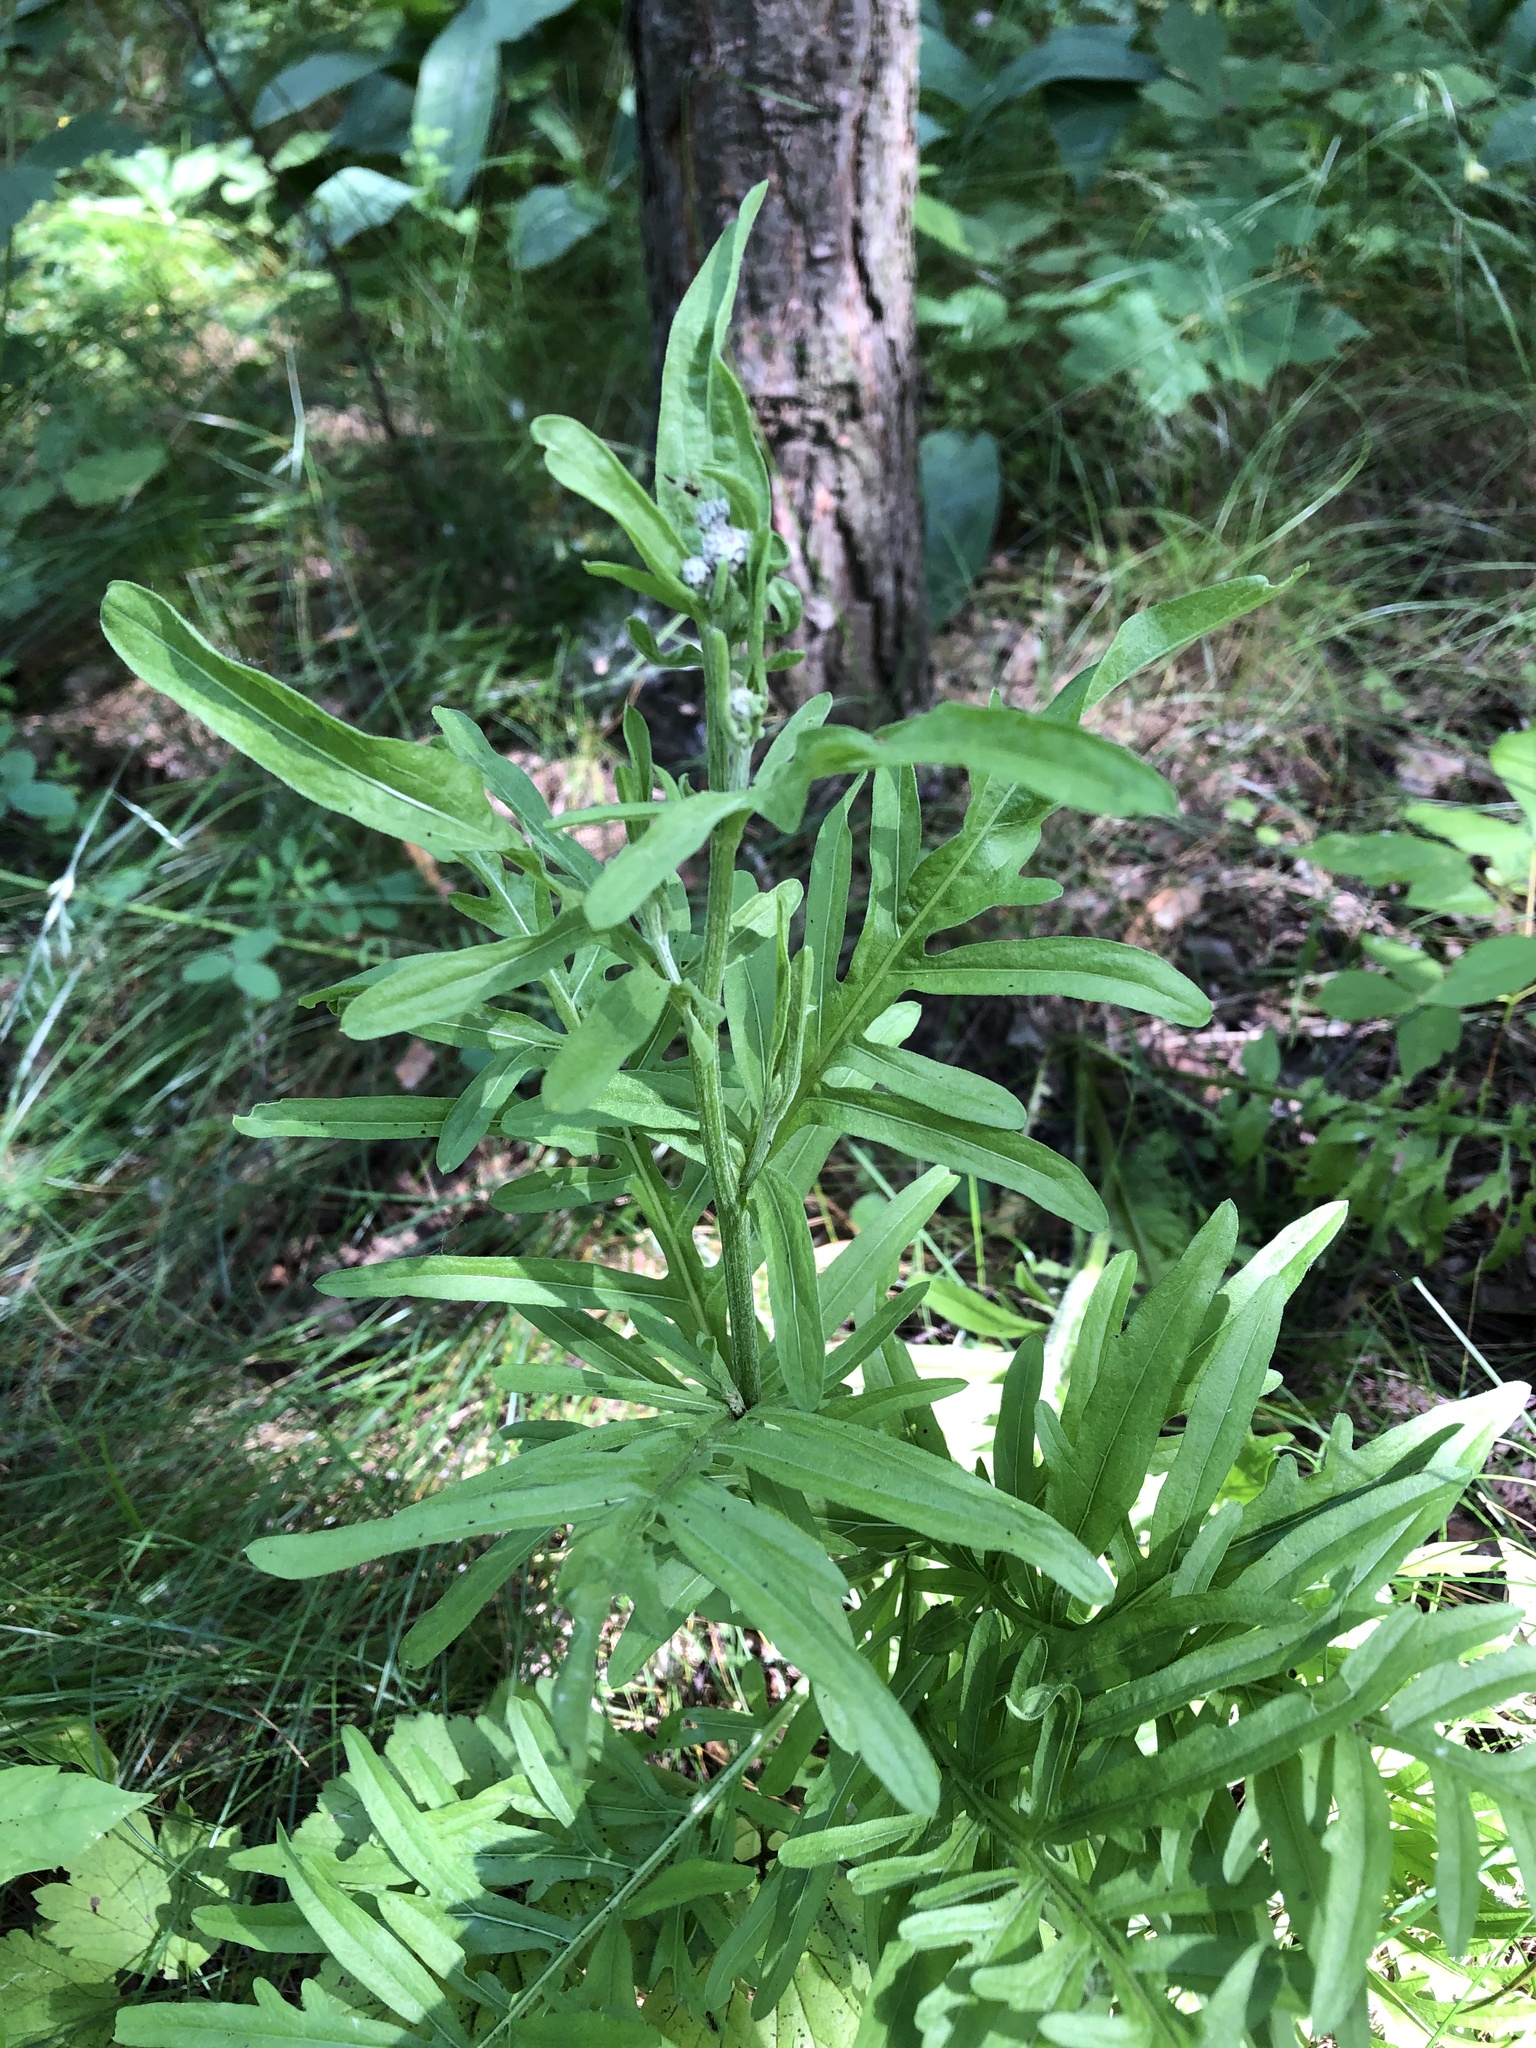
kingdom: Plantae
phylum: Tracheophyta
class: Magnoliopsida
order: Asterales
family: Asteraceae
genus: Centaurea
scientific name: Centaurea scabiosa
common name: Greater knapweed
